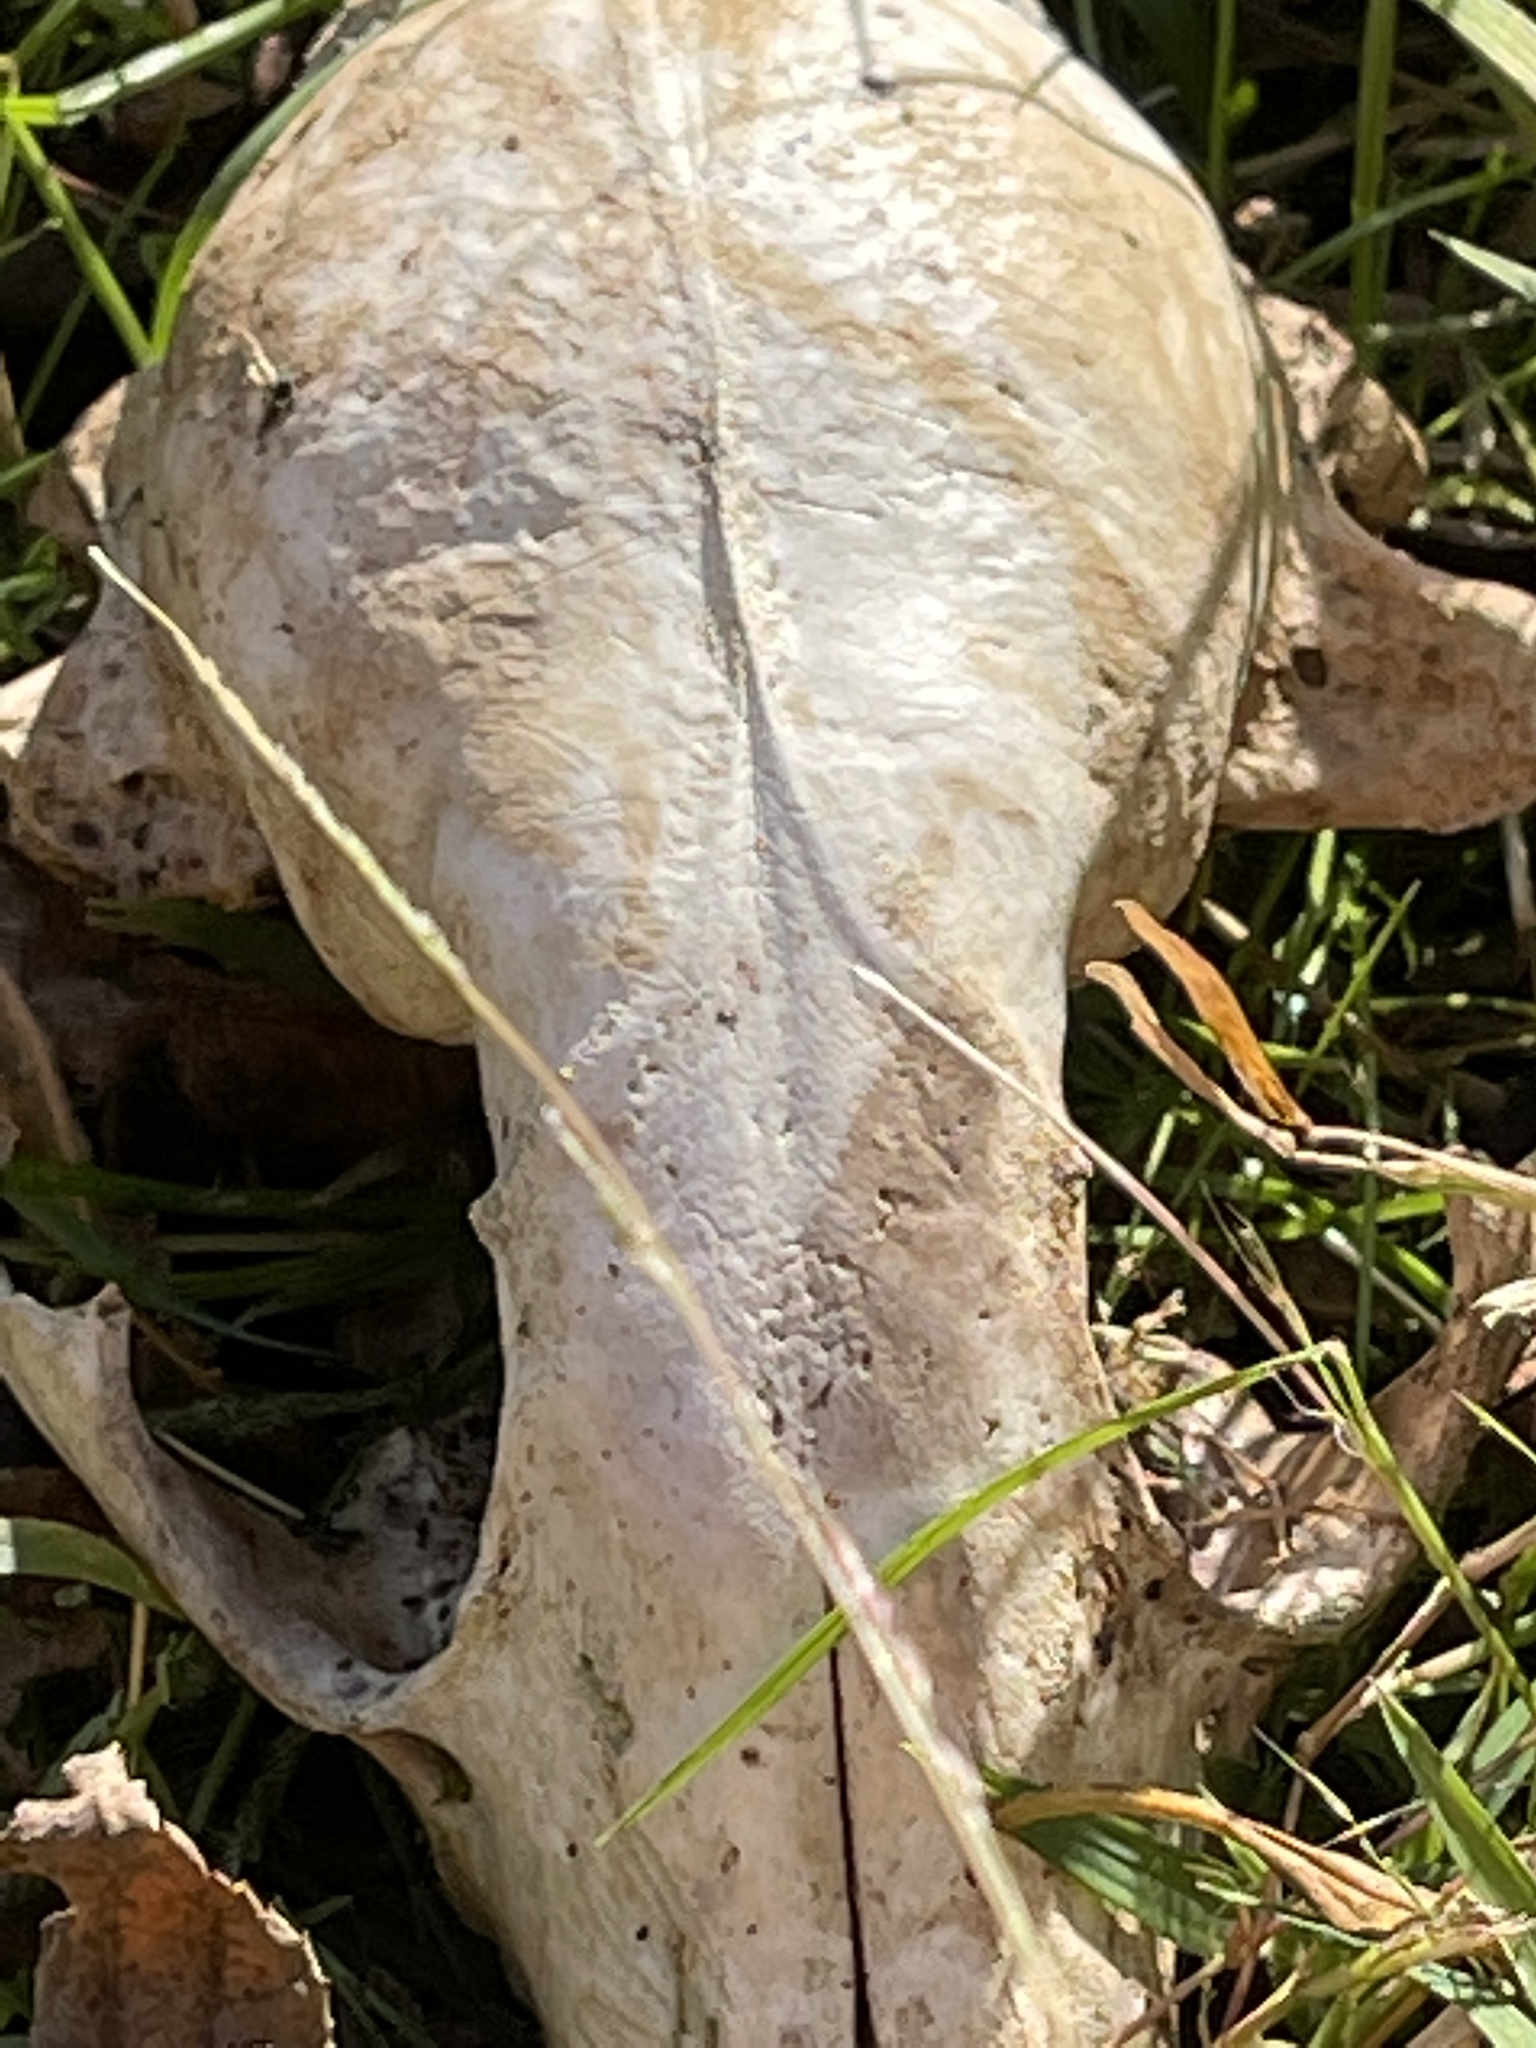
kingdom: Animalia
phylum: Chordata
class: Mammalia
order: Carnivora
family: Procyonidae
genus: Procyon
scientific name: Procyon lotor
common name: Raccoon
